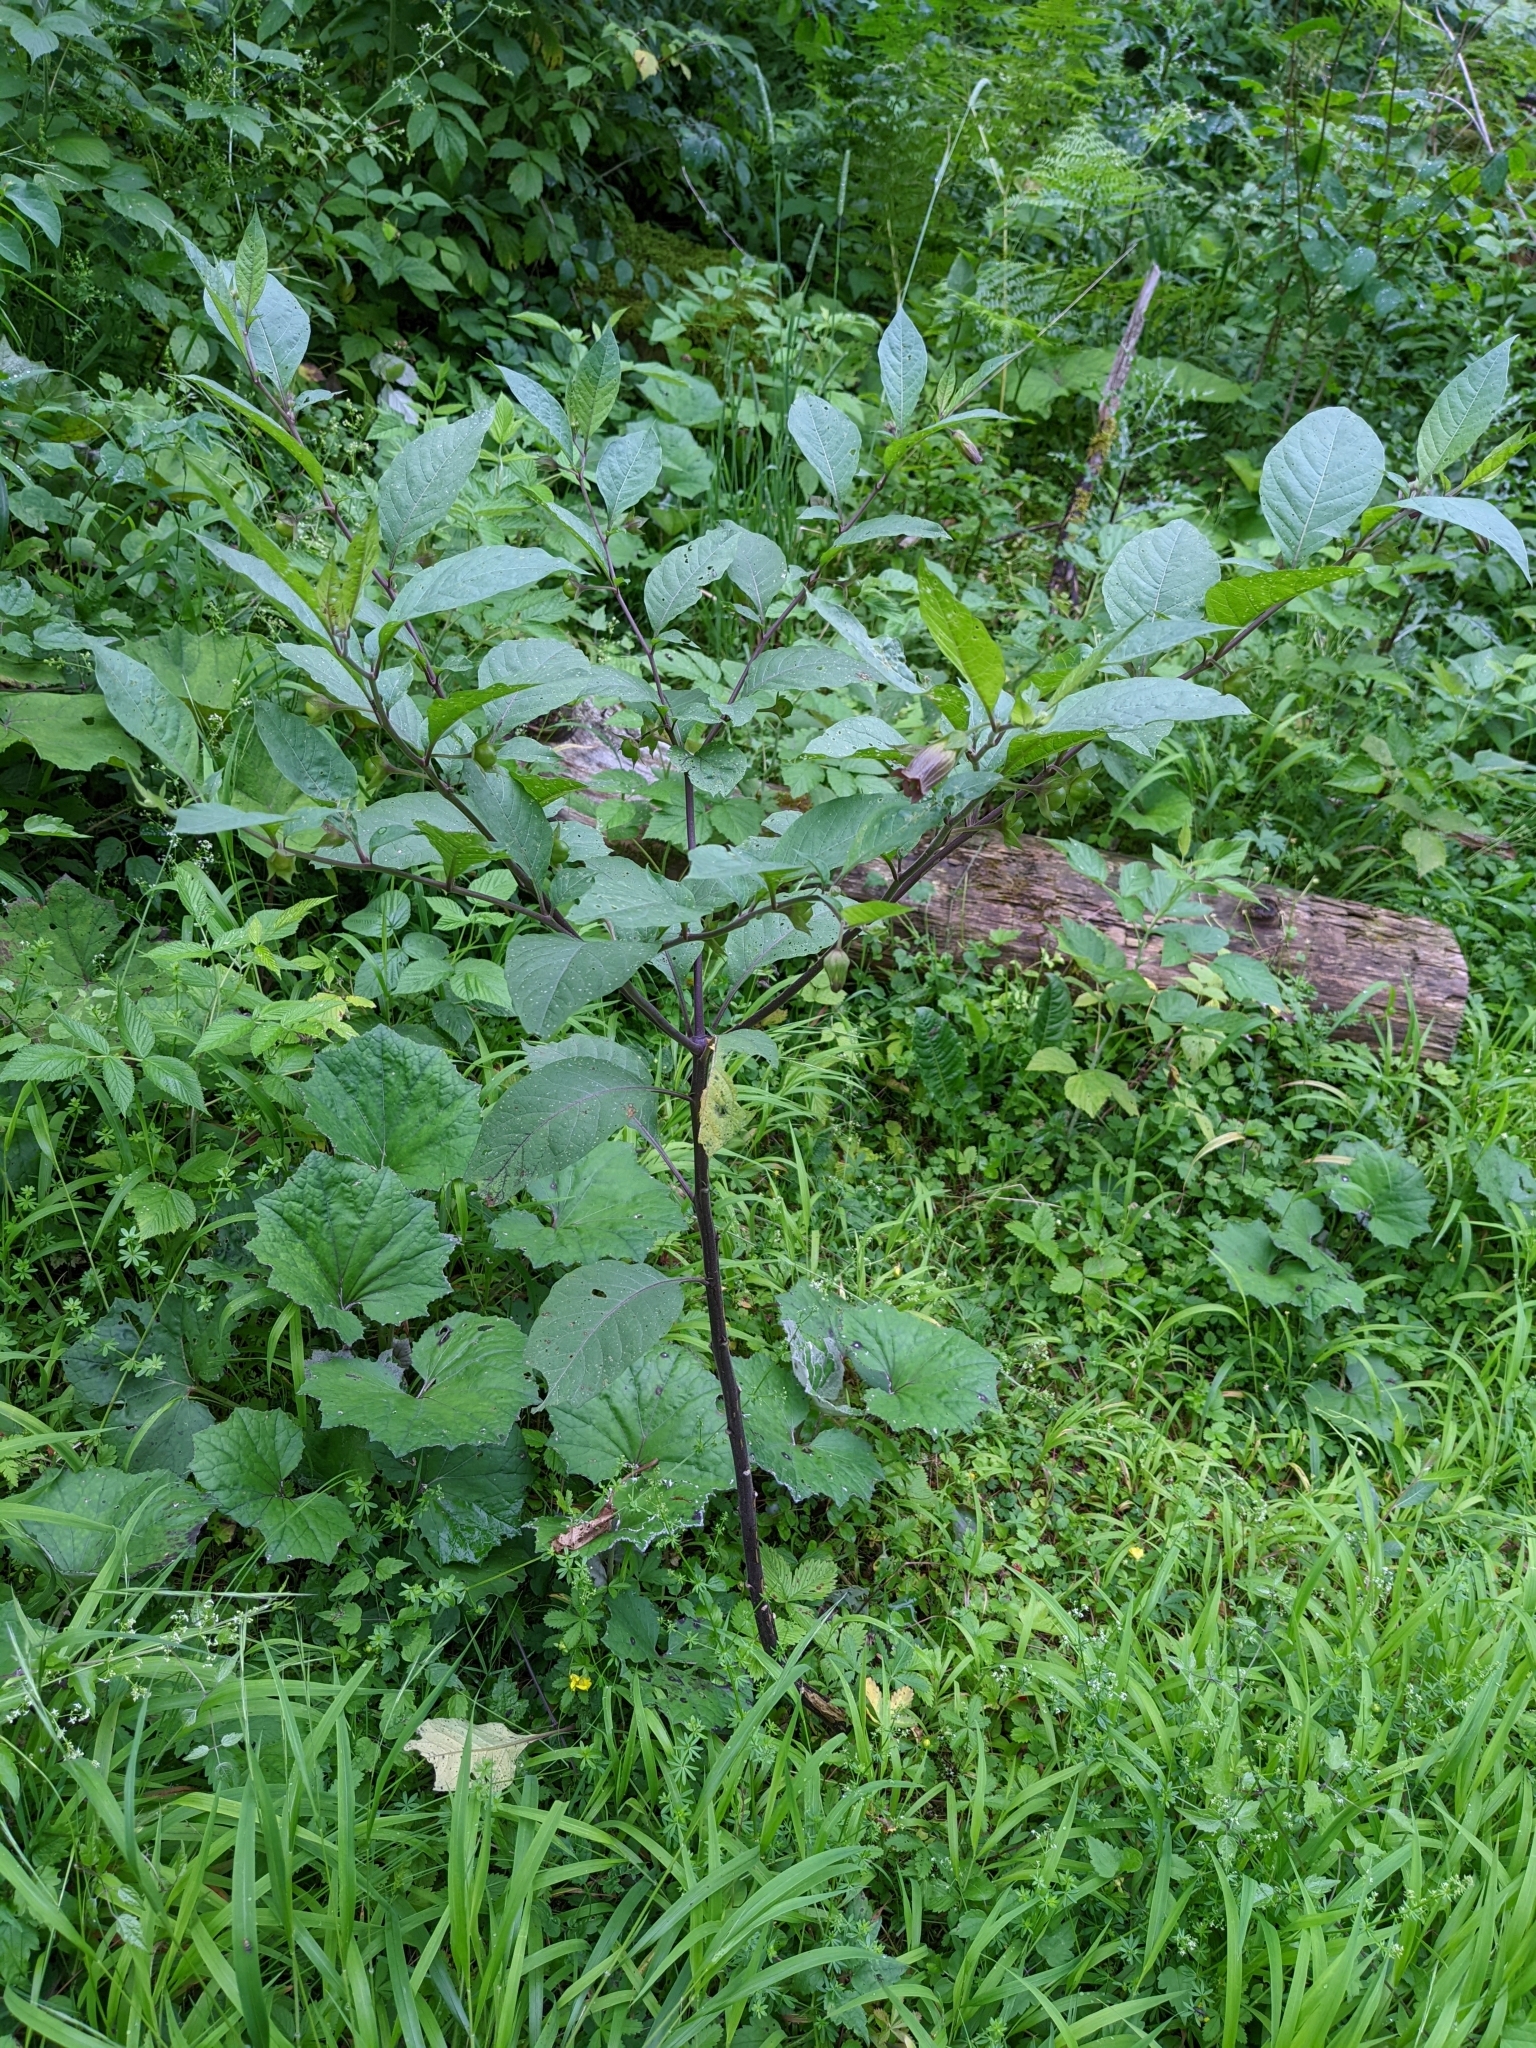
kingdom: Plantae
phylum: Tracheophyta
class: Magnoliopsida
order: Solanales
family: Solanaceae
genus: Atropa
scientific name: Atropa belladonna
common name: Deadly nightshade
